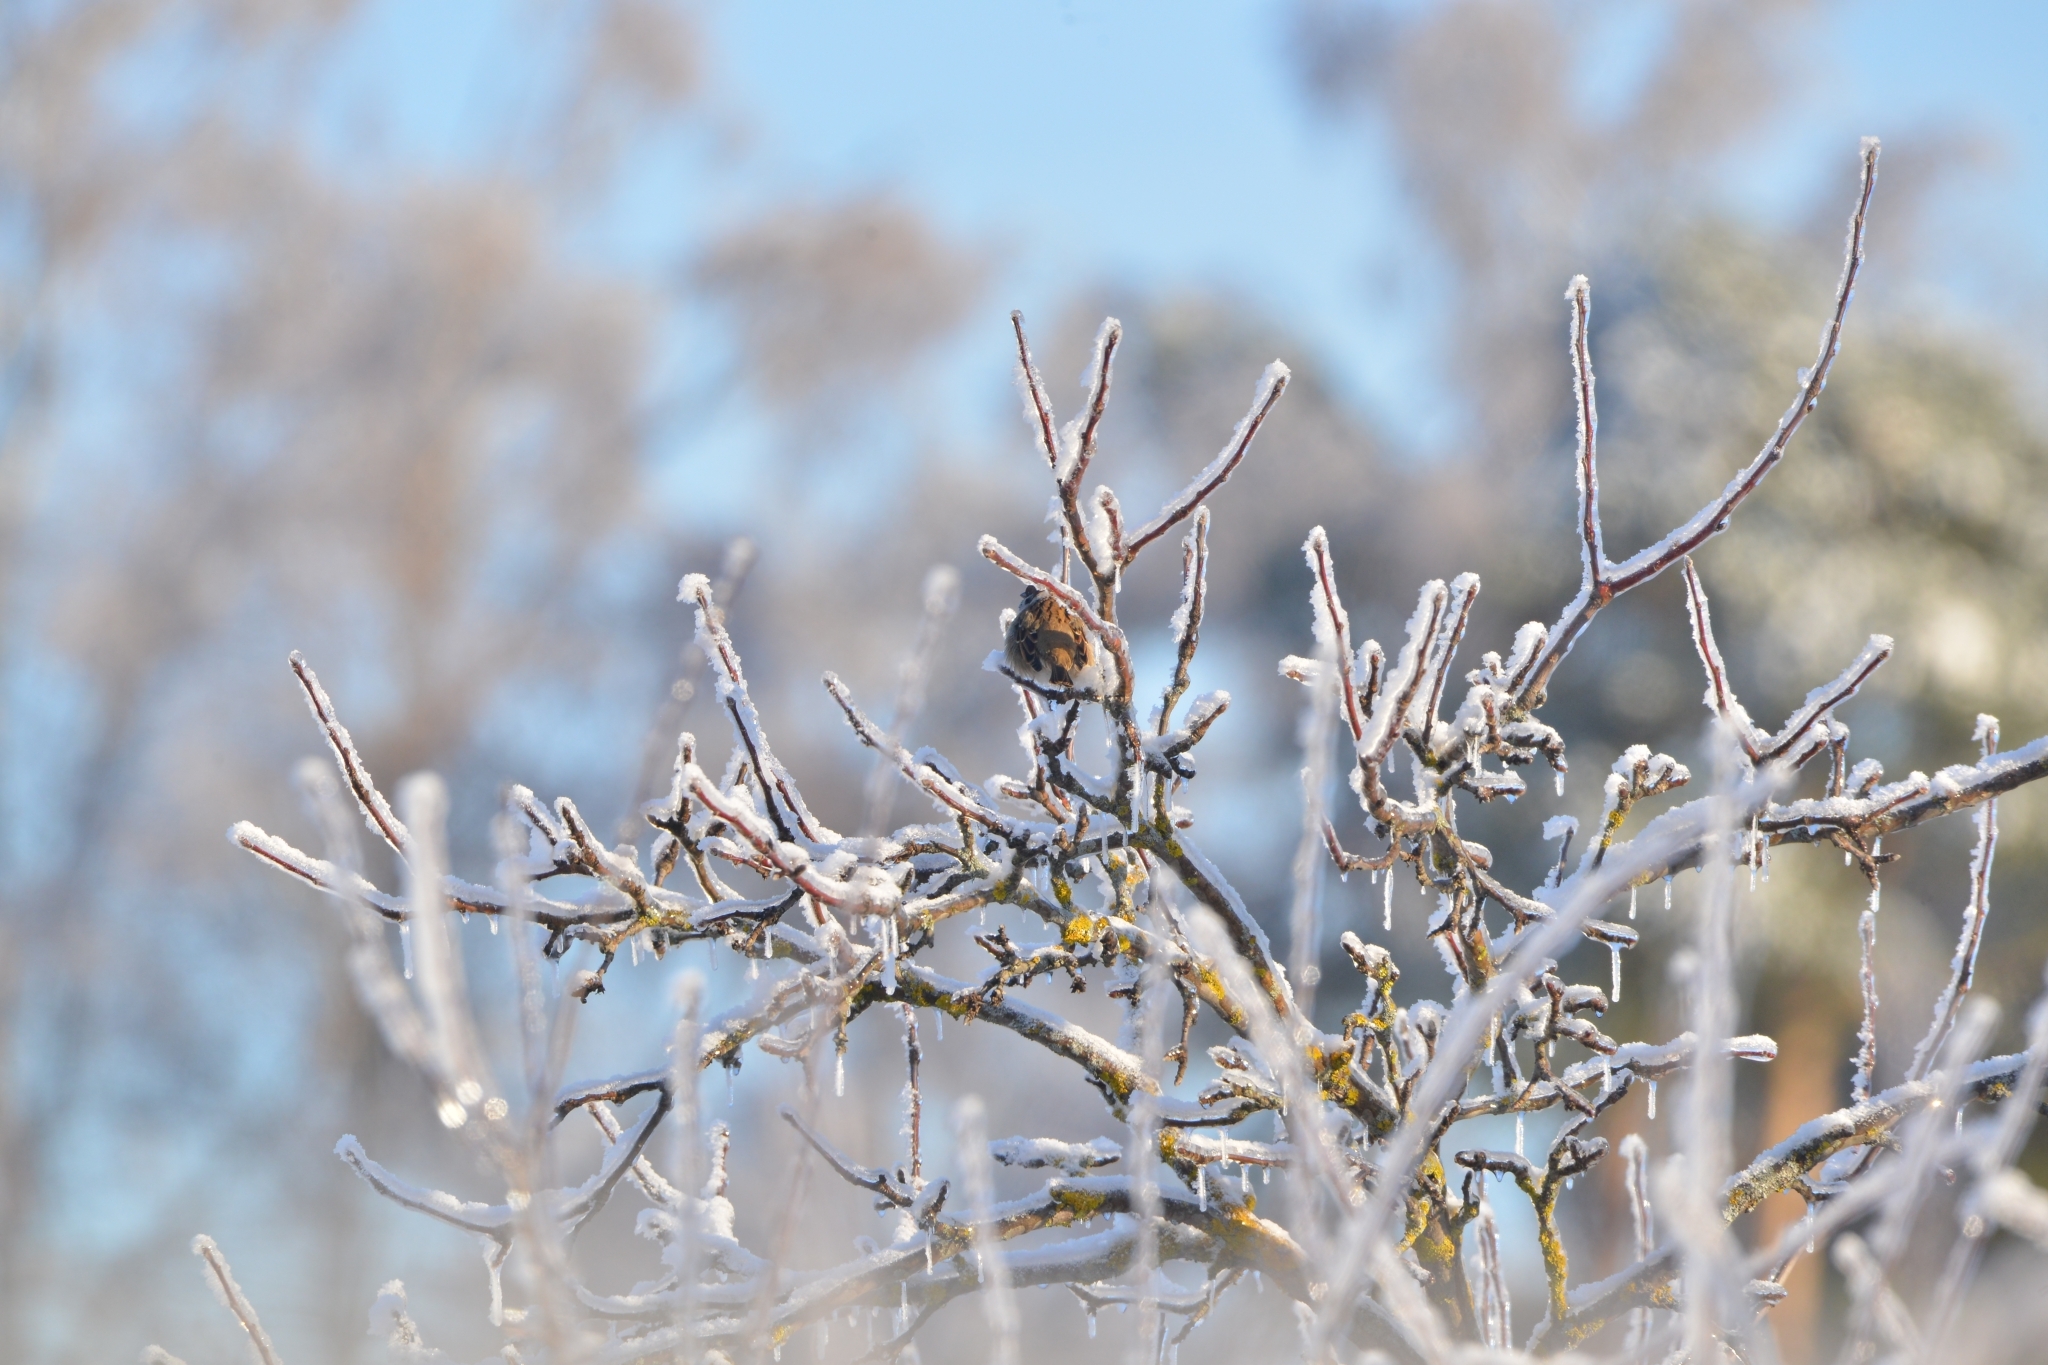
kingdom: Animalia
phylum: Chordata
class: Aves
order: Passeriformes
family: Passeridae
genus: Passer
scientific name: Passer montanus
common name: Eurasian tree sparrow
